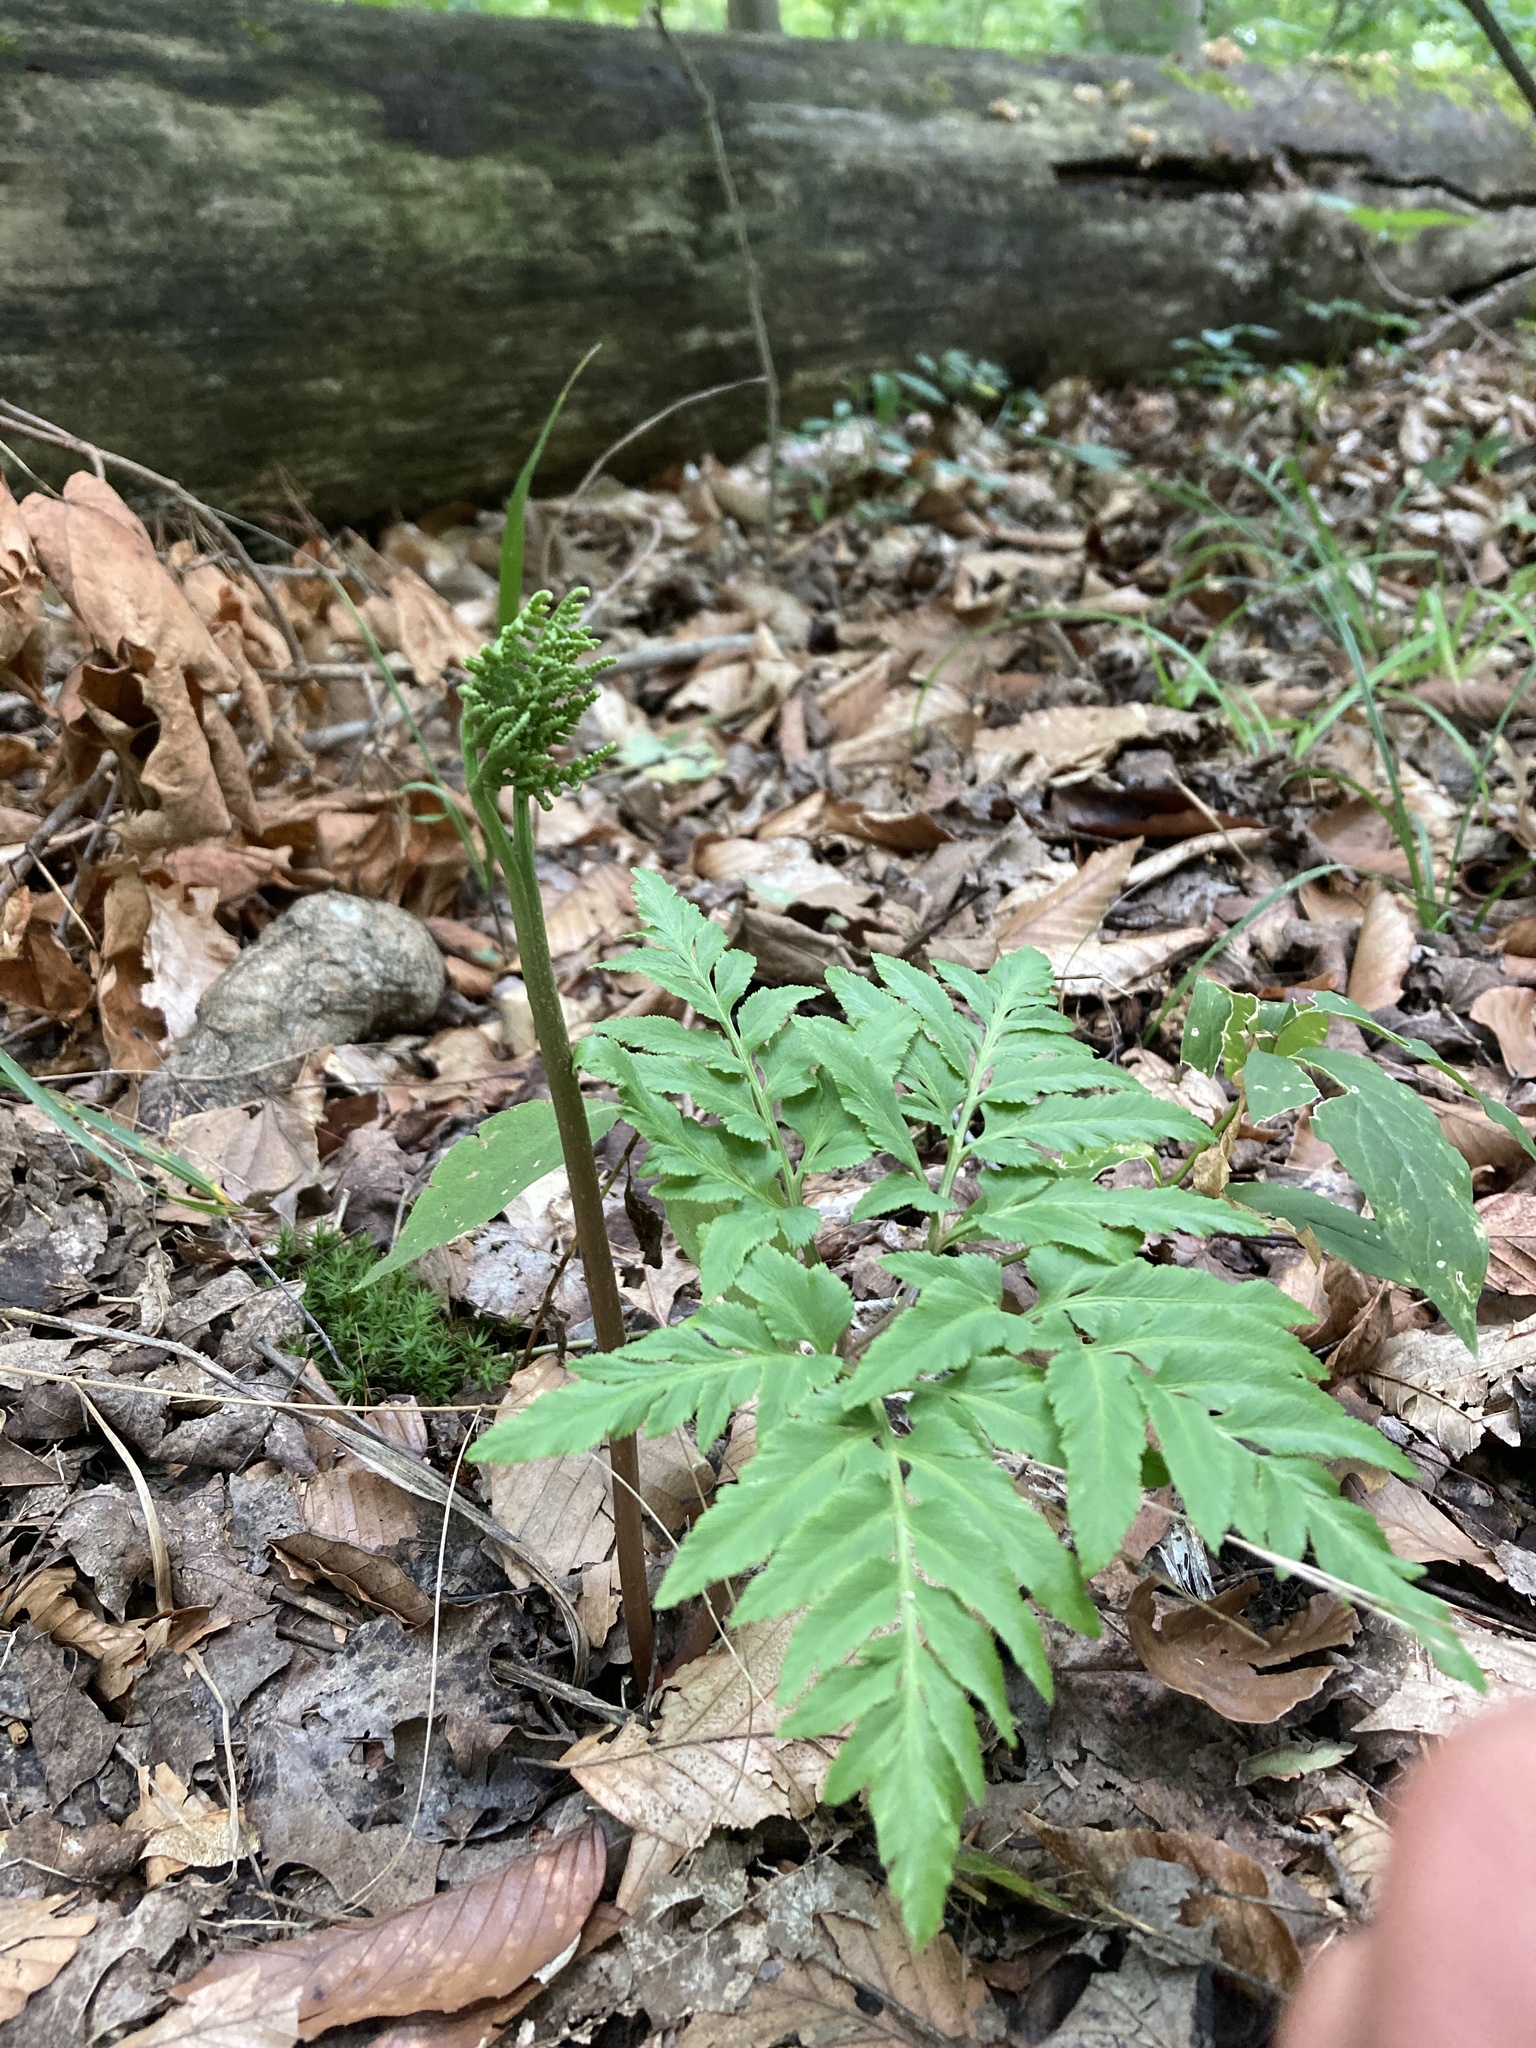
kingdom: Plantae
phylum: Tracheophyta
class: Polypodiopsida
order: Ophioglossales
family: Ophioglossaceae
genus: Sceptridium
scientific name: Sceptridium dissectum
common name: Cut-leaved grapefern
